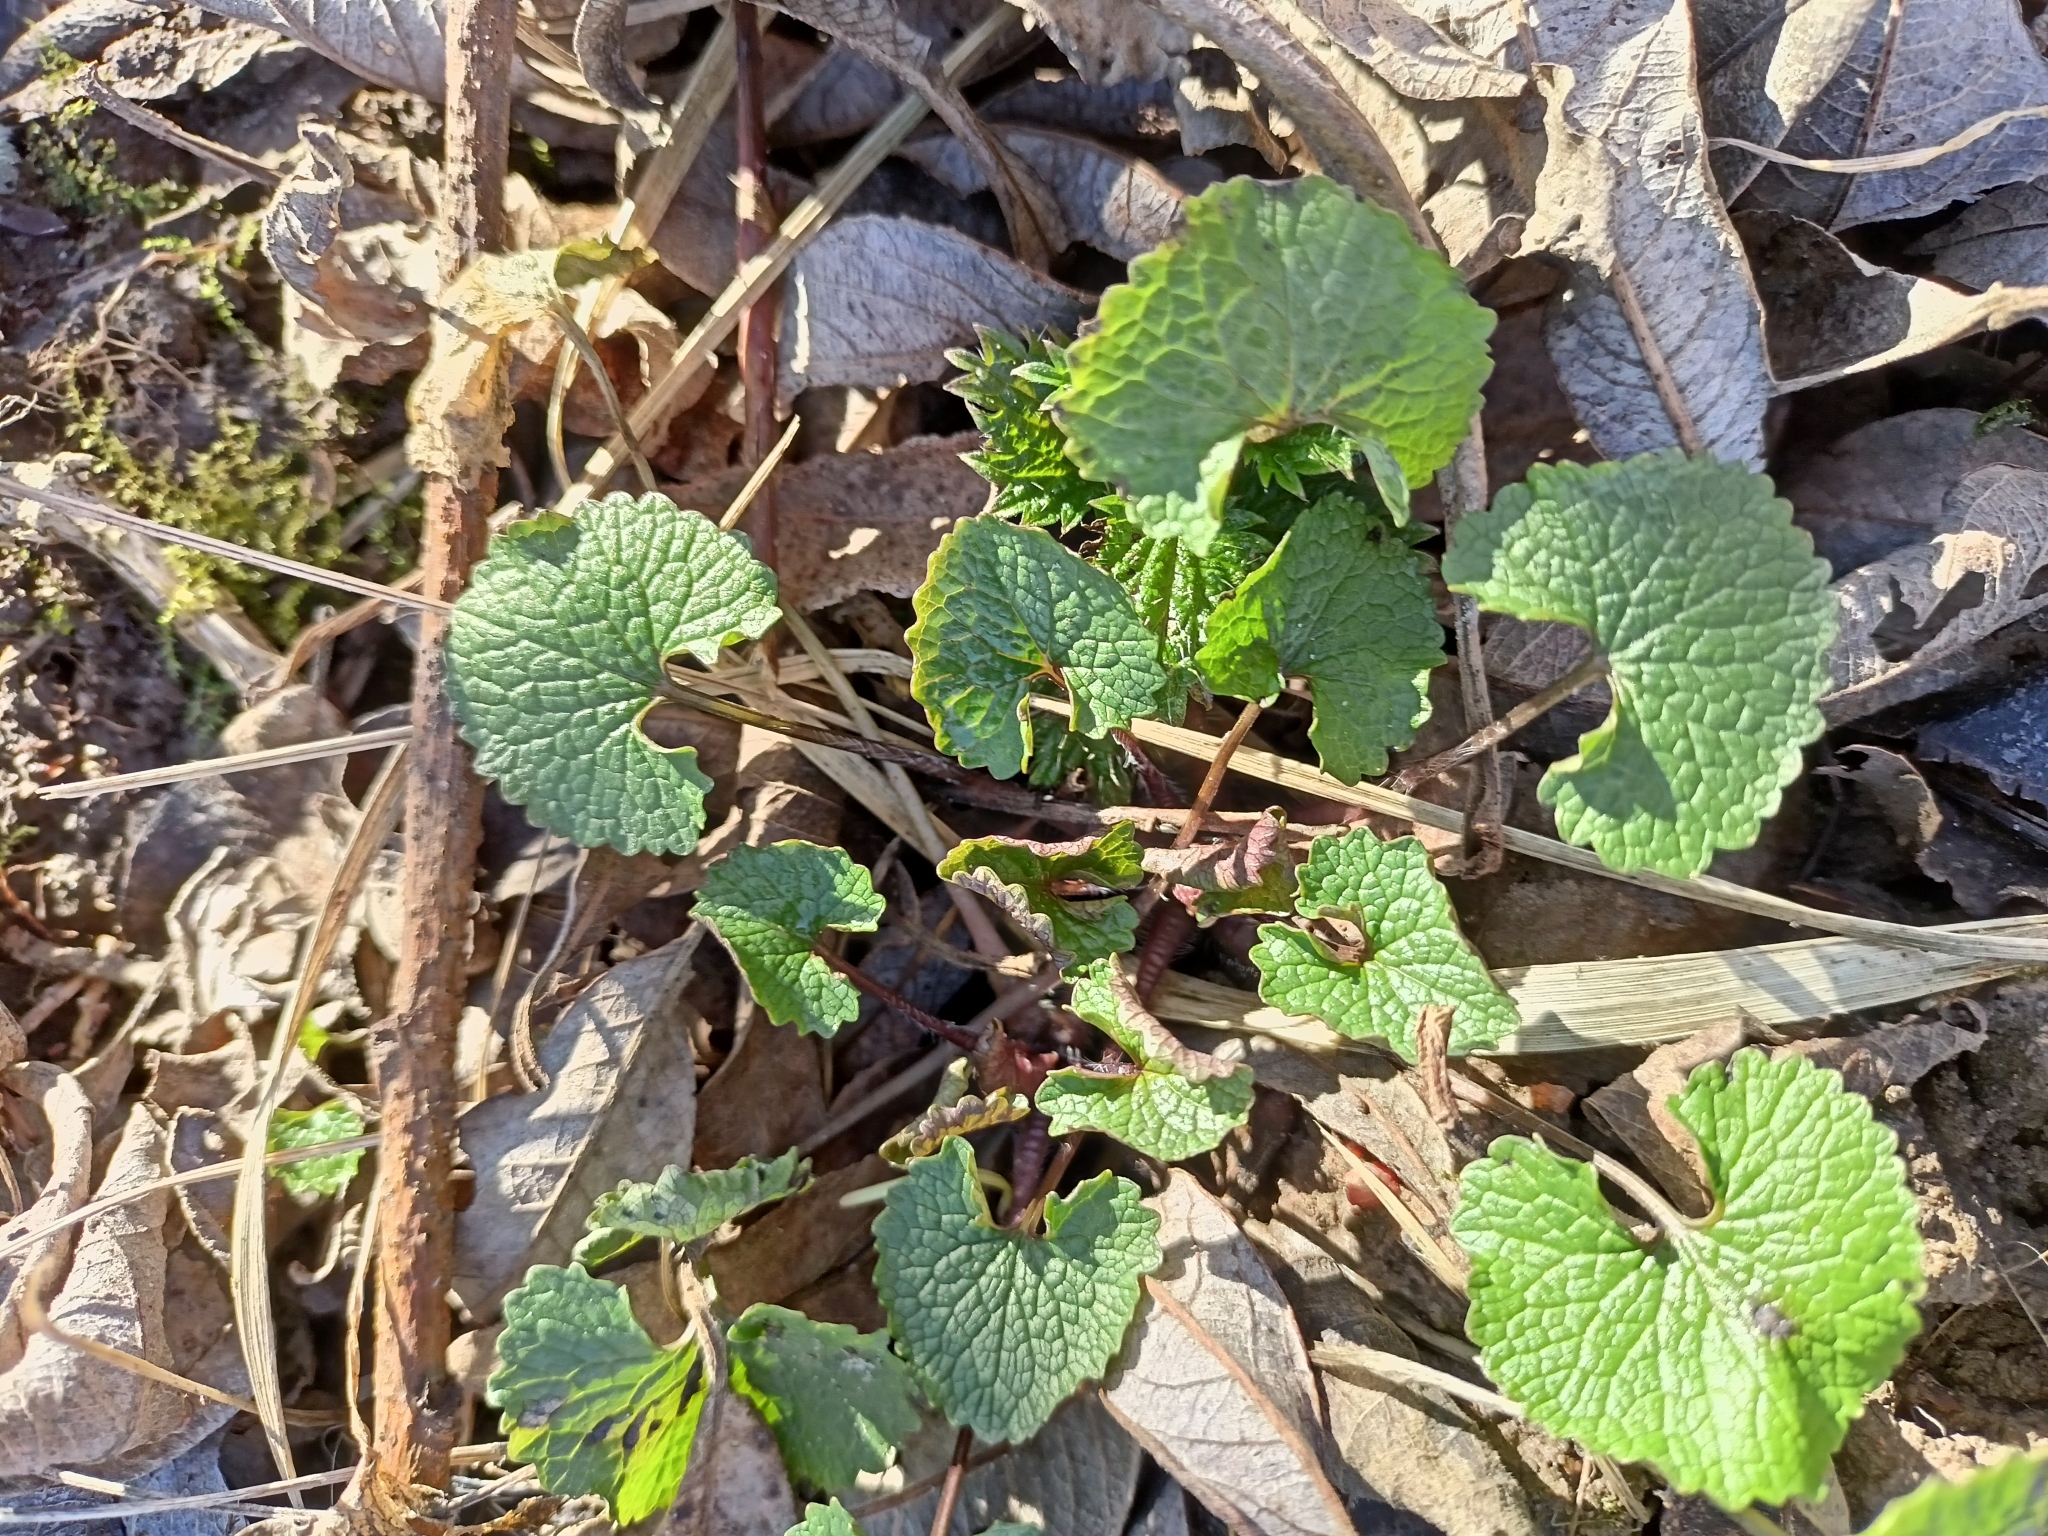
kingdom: Plantae
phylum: Tracheophyta
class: Magnoliopsida
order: Brassicales
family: Brassicaceae
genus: Alliaria
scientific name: Alliaria petiolata
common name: Garlic mustard
